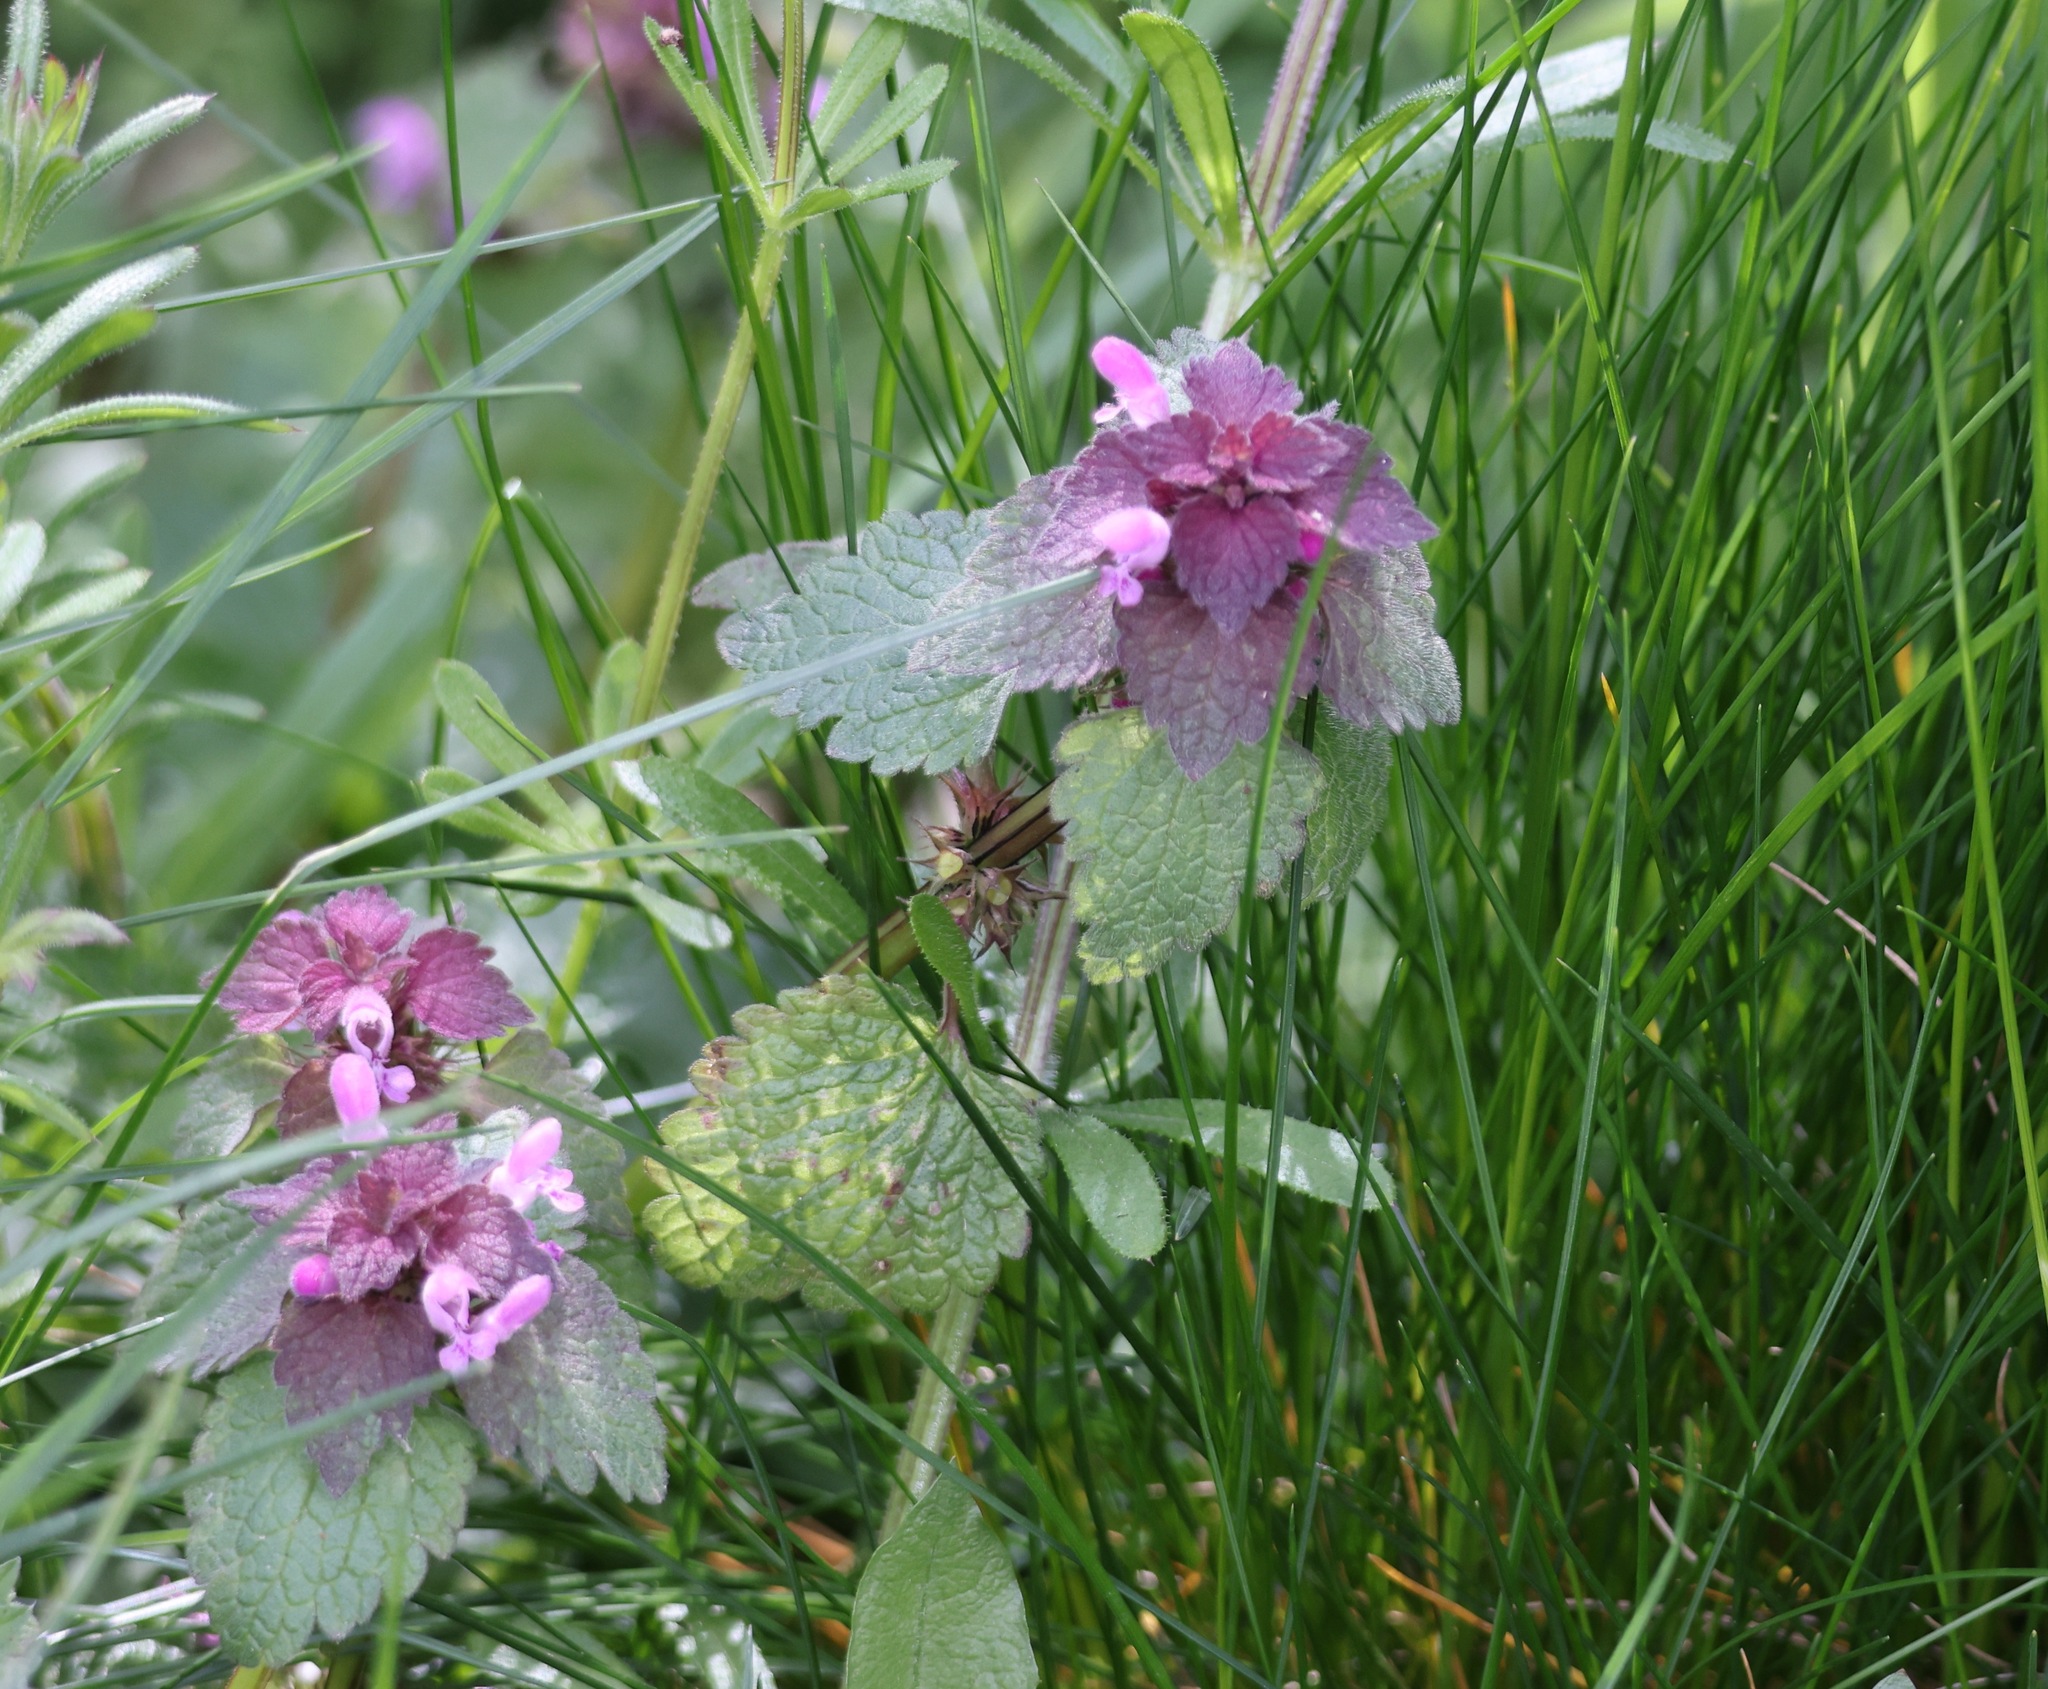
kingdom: Plantae
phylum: Tracheophyta
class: Magnoliopsida
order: Lamiales
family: Lamiaceae
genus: Lamium
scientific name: Lamium purpureum
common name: Red dead-nettle
